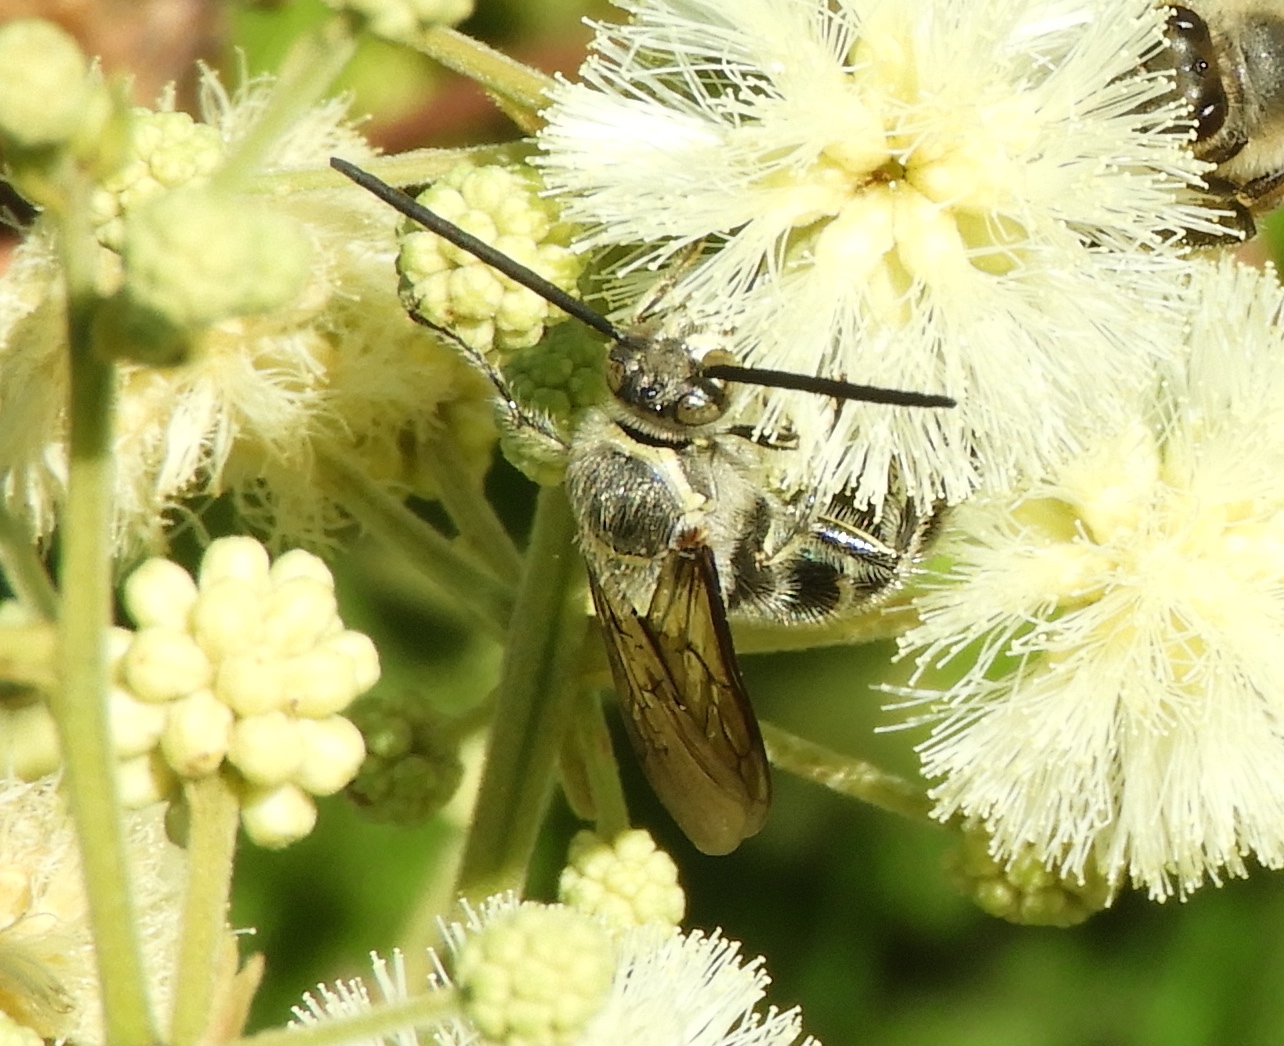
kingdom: Animalia
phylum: Arthropoda
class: Insecta
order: Hymenoptera
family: Scoliidae
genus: Dielis
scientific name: Dielis tolteca
